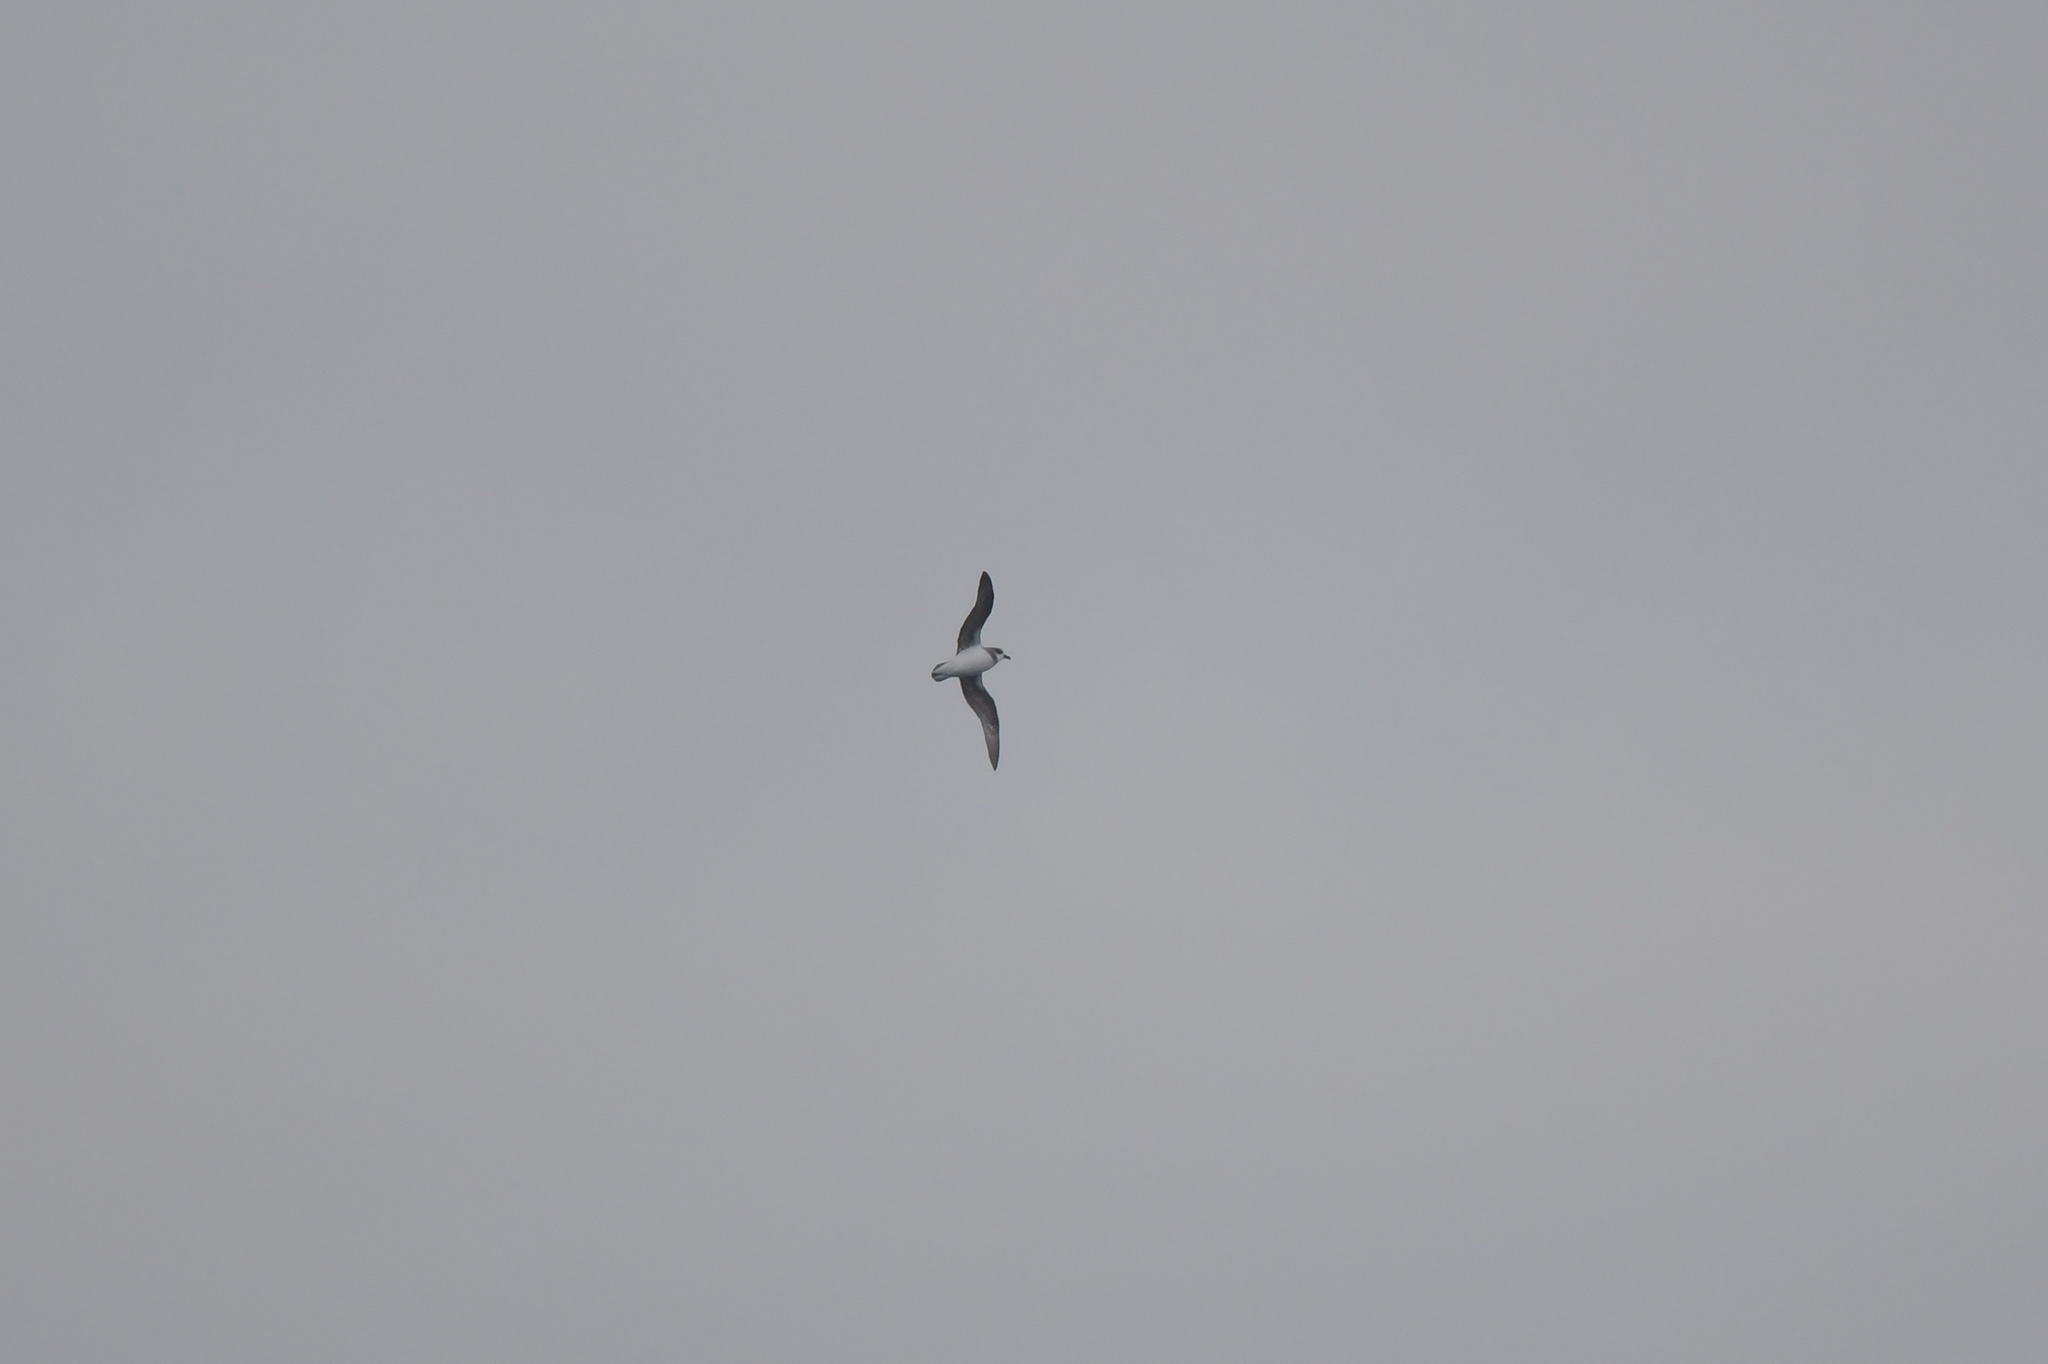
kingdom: Animalia
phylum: Chordata
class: Aves
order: Procellariiformes
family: Procellariidae
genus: Pterodroma
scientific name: Pterodroma mollis
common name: Soft-plumaged petrel
